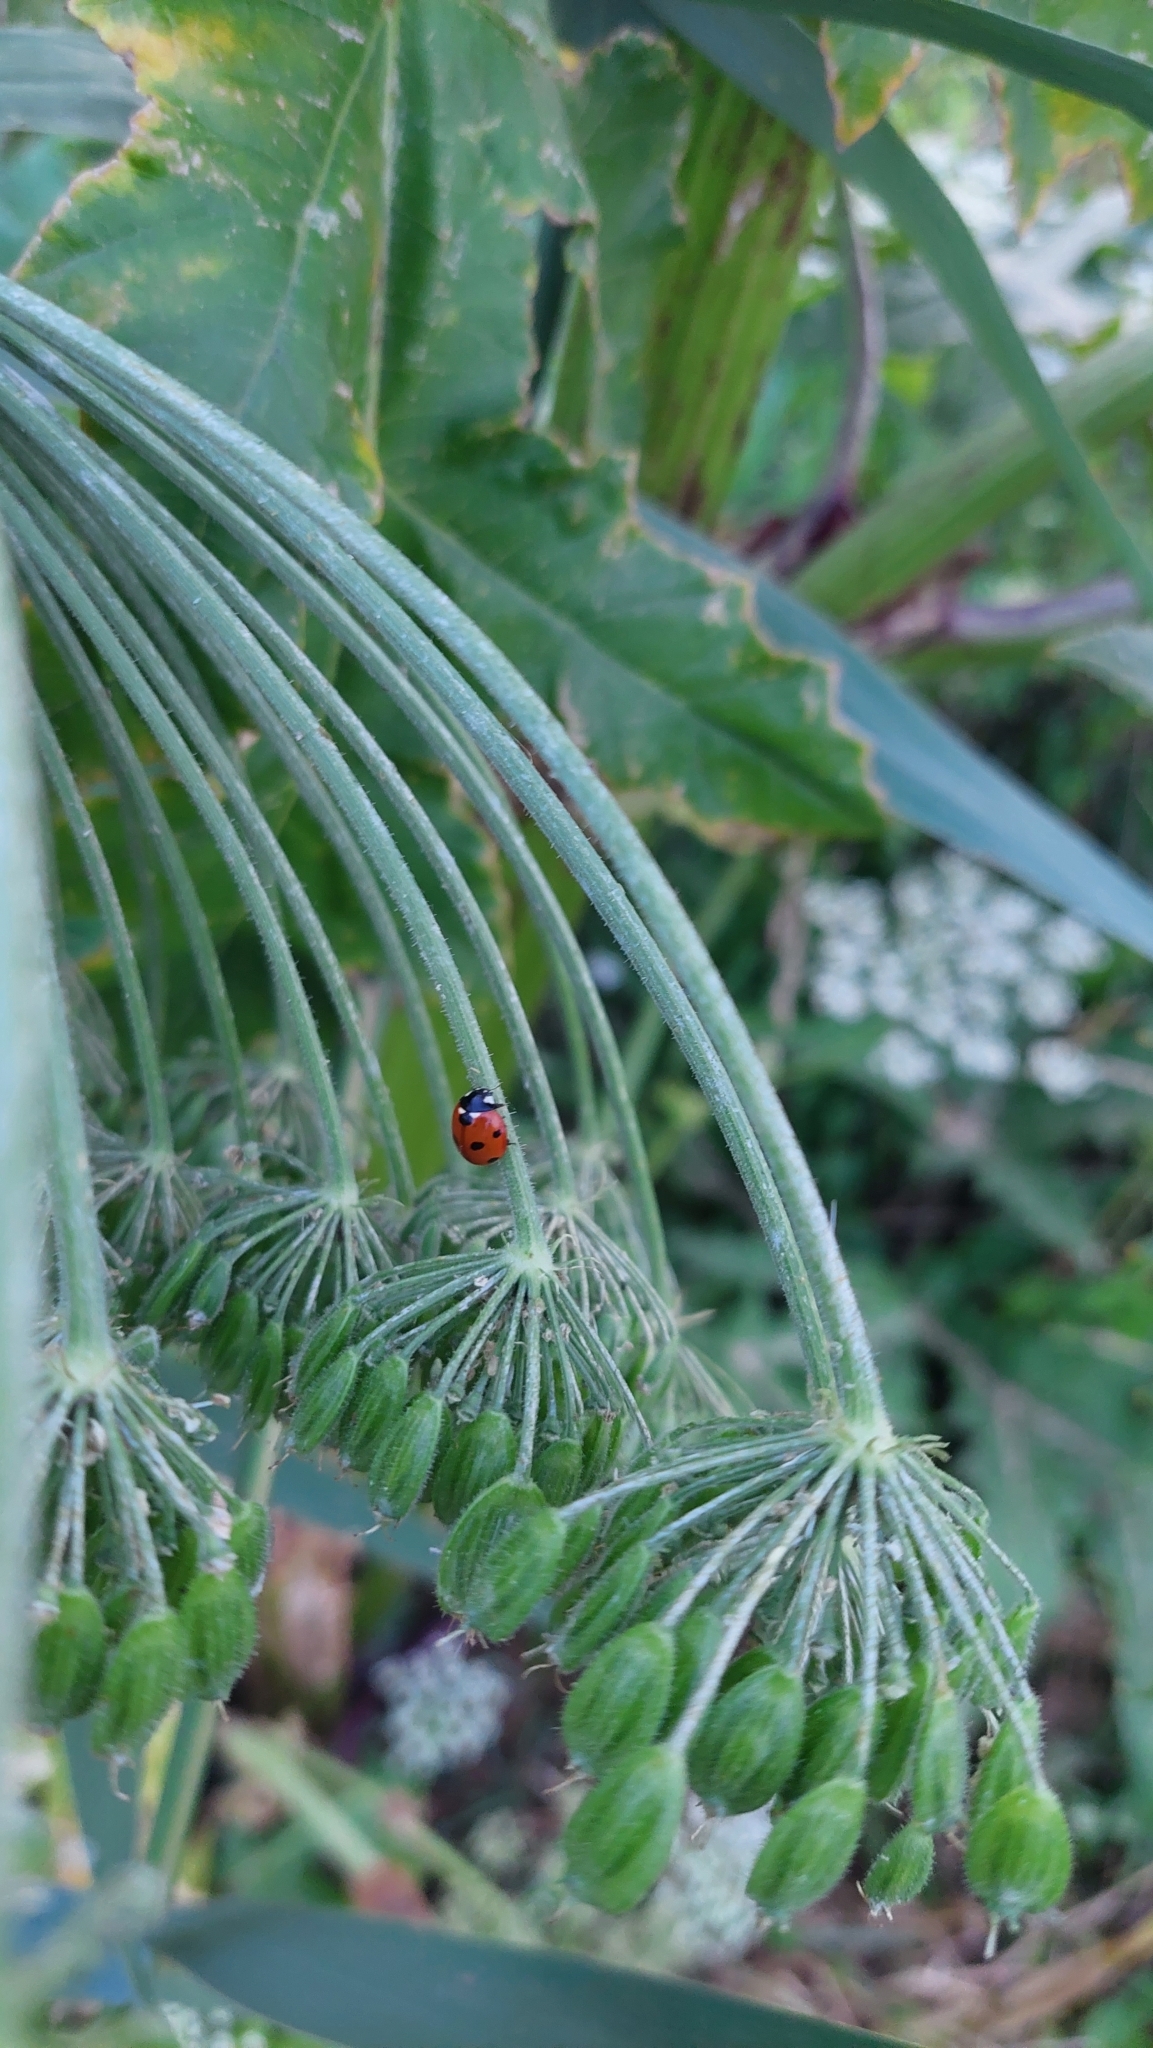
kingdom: Animalia
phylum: Arthropoda
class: Insecta
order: Coleoptera
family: Coccinellidae
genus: Coccinella
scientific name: Coccinella septempunctata
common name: Sevenspotted lady beetle
